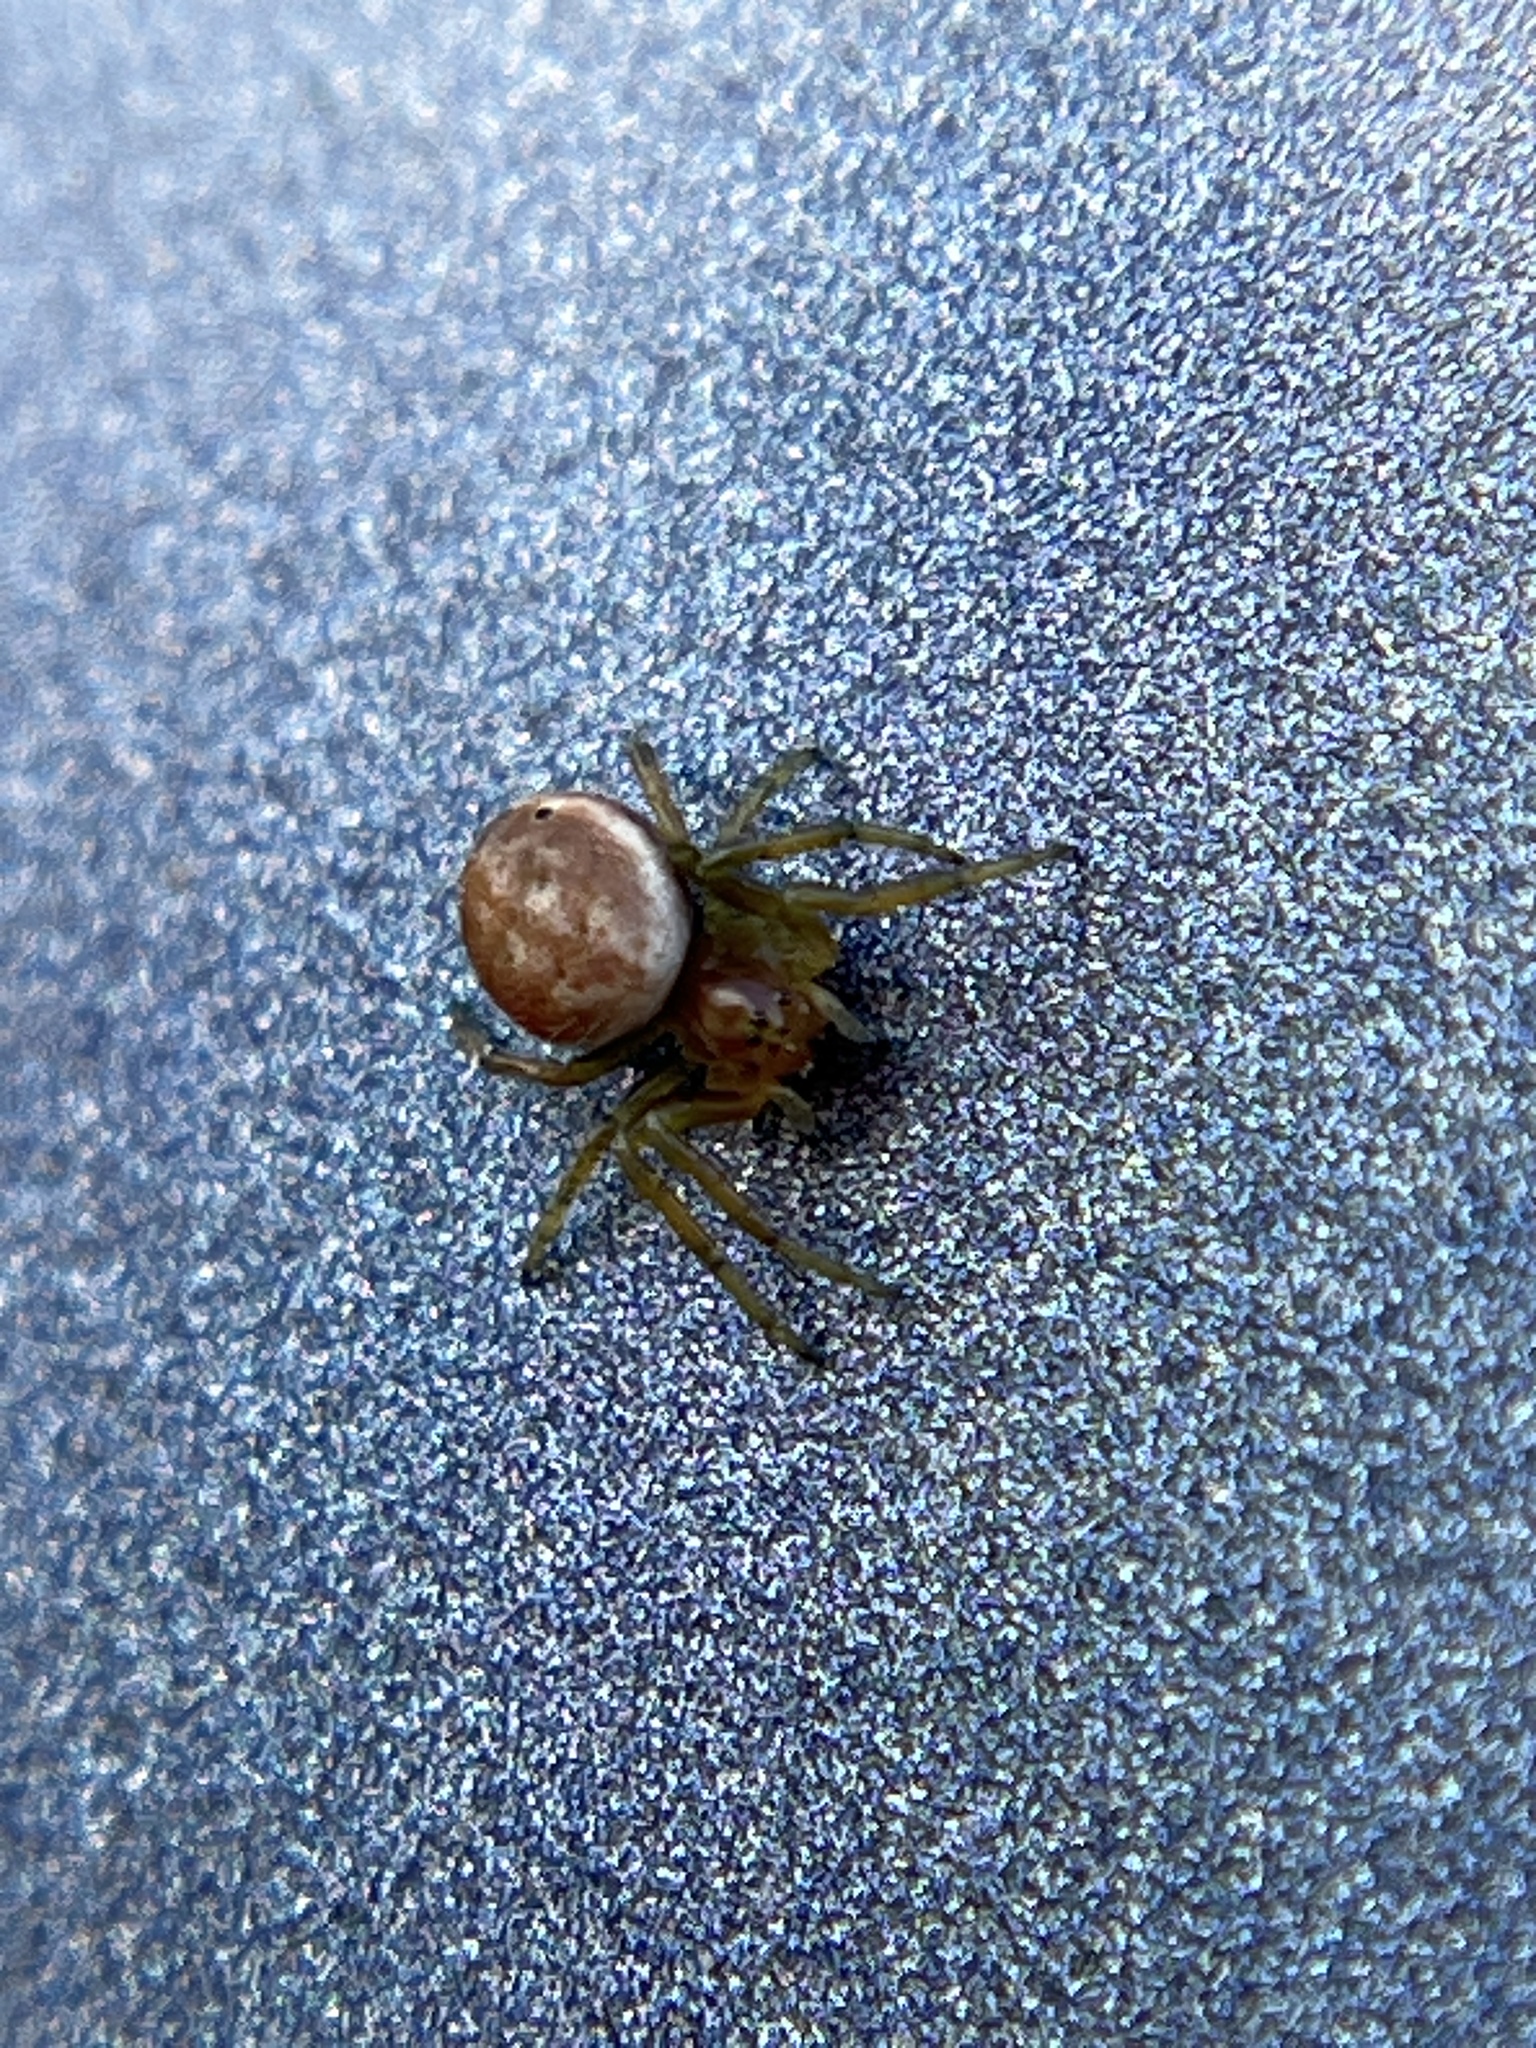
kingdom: Animalia
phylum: Arthropoda
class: Arachnida
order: Araneae
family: Araneidae
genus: Araniella
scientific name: Araniella displicata
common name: Sixspotted orb weaver
